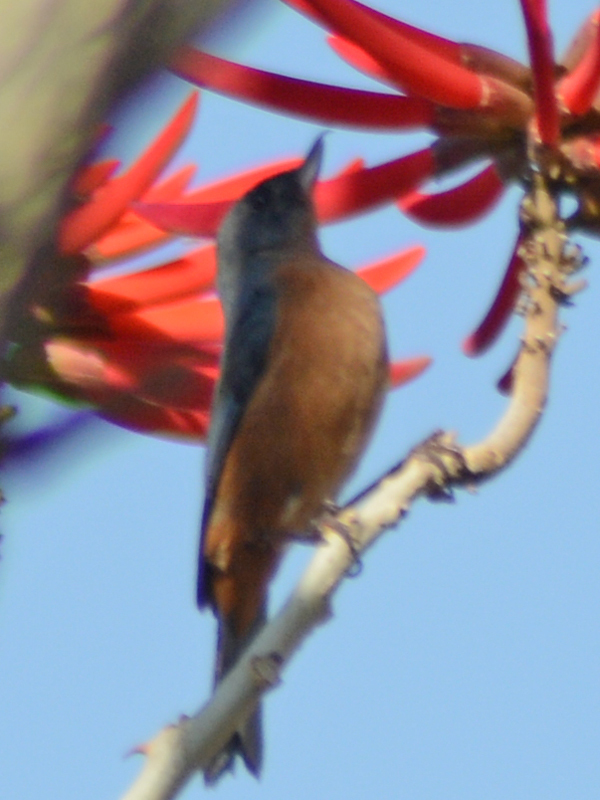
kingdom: Animalia
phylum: Chordata
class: Aves
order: Passeriformes
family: Thraupidae
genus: Diglossa
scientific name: Diglossa baritula
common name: Cinnamon-bellied flowerpiercer
